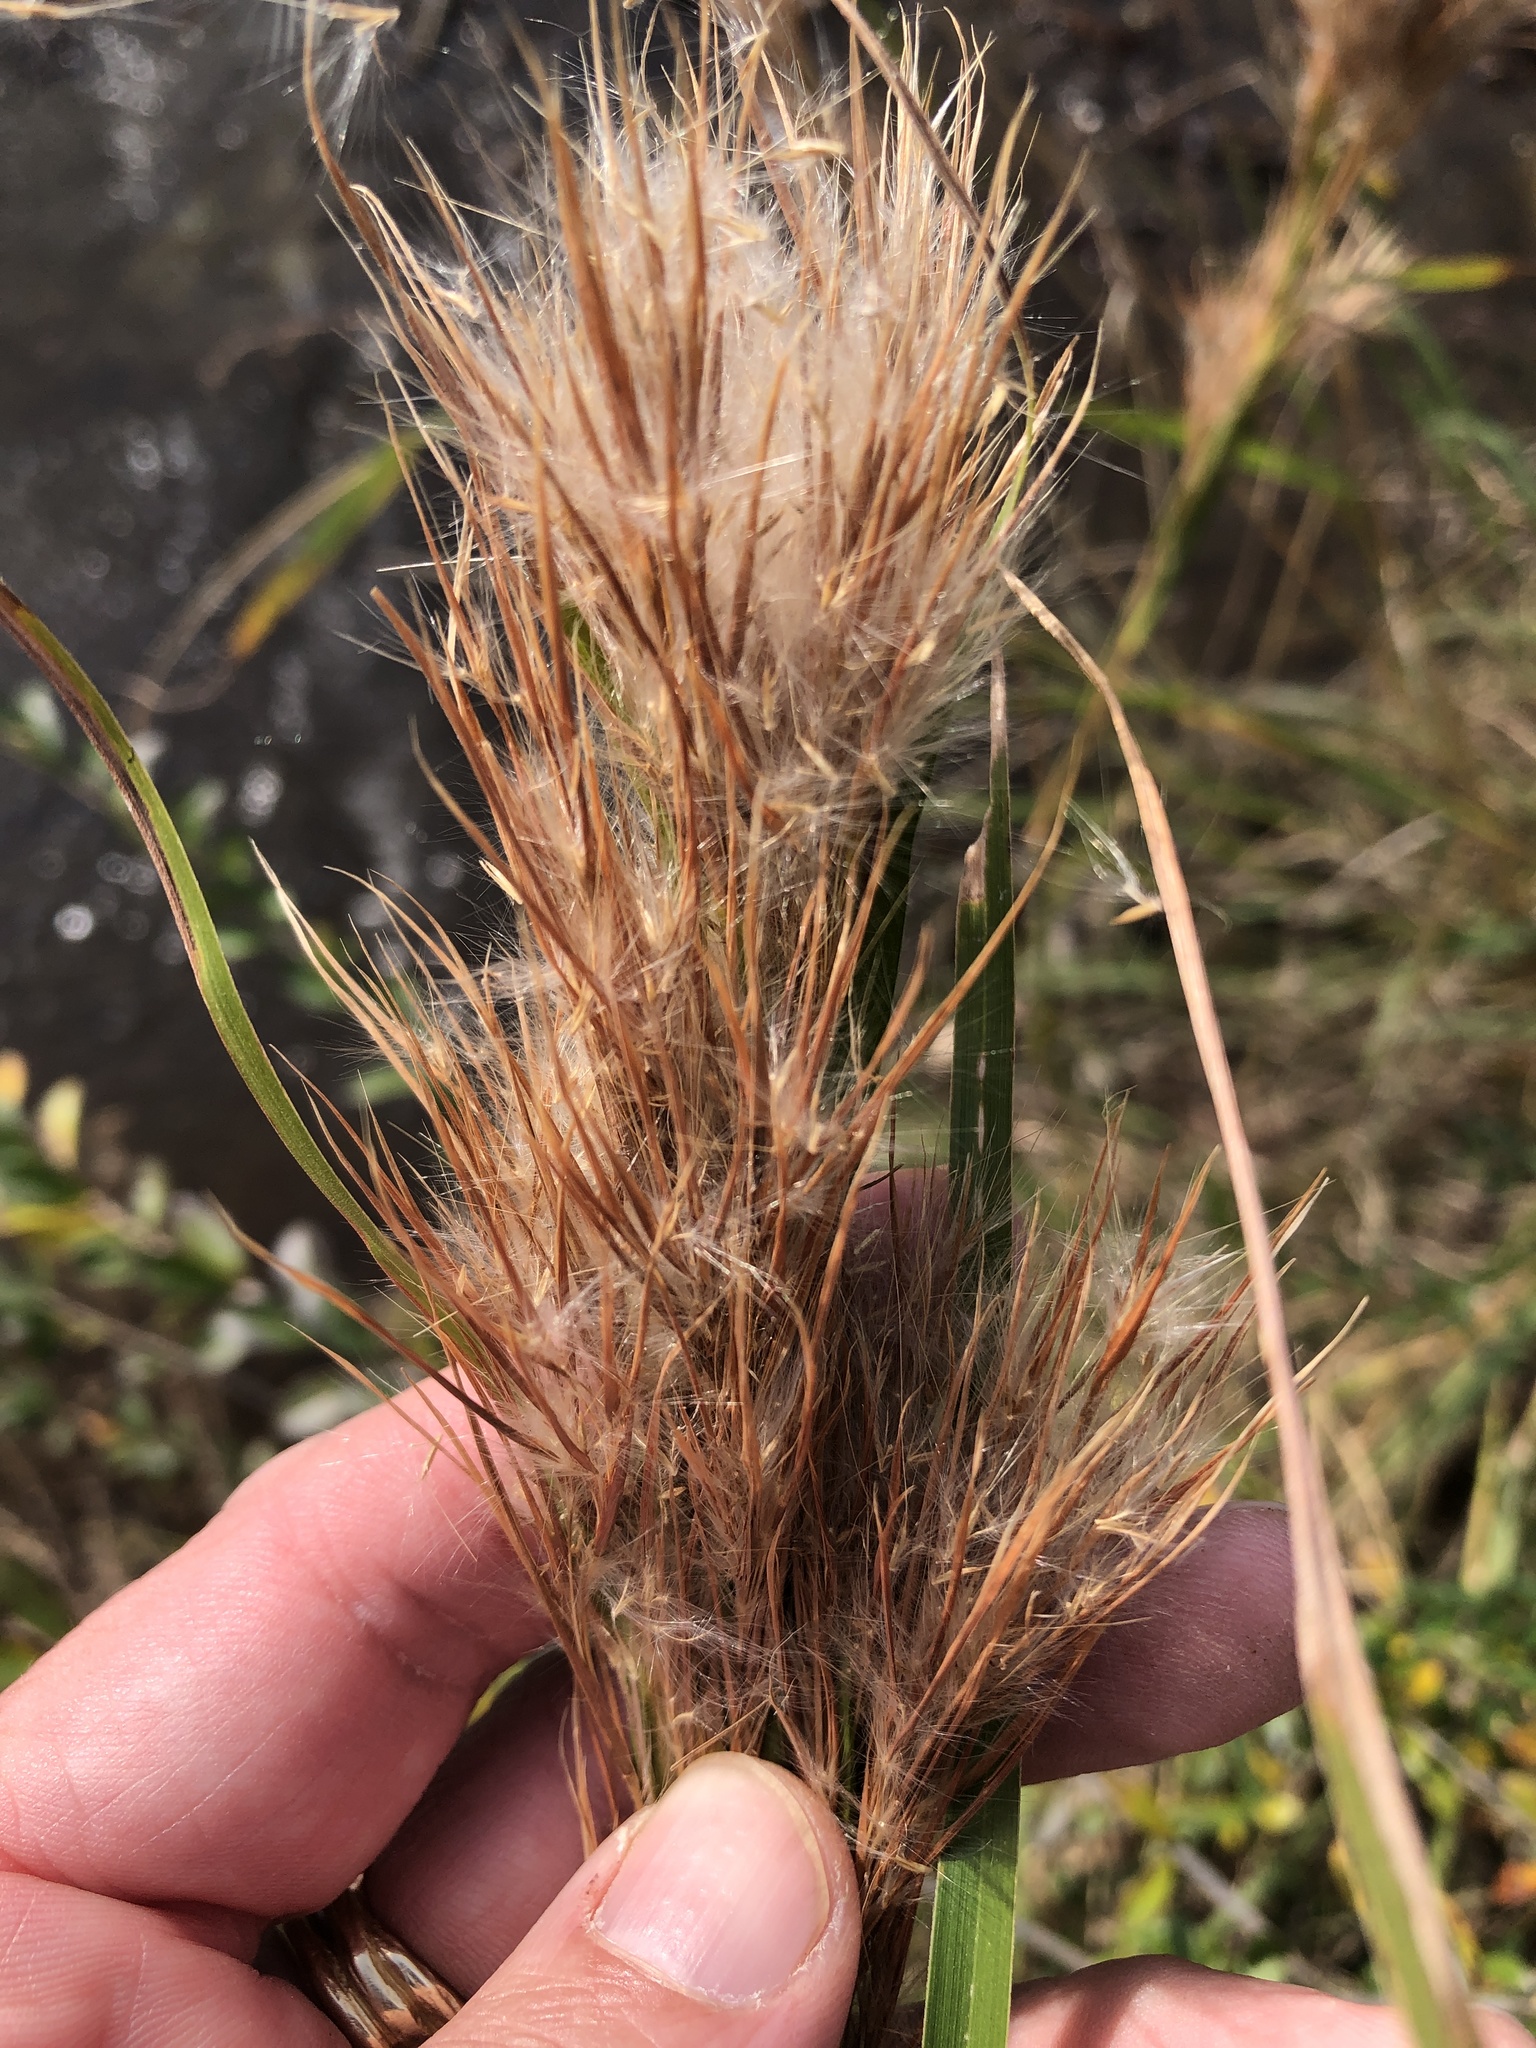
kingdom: Plantae
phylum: Tracheophyta
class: Liliopsida
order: Poales
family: Poaceae
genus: Andropogon
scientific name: Andropogon tenuispatheus
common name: Bushy bluestem
